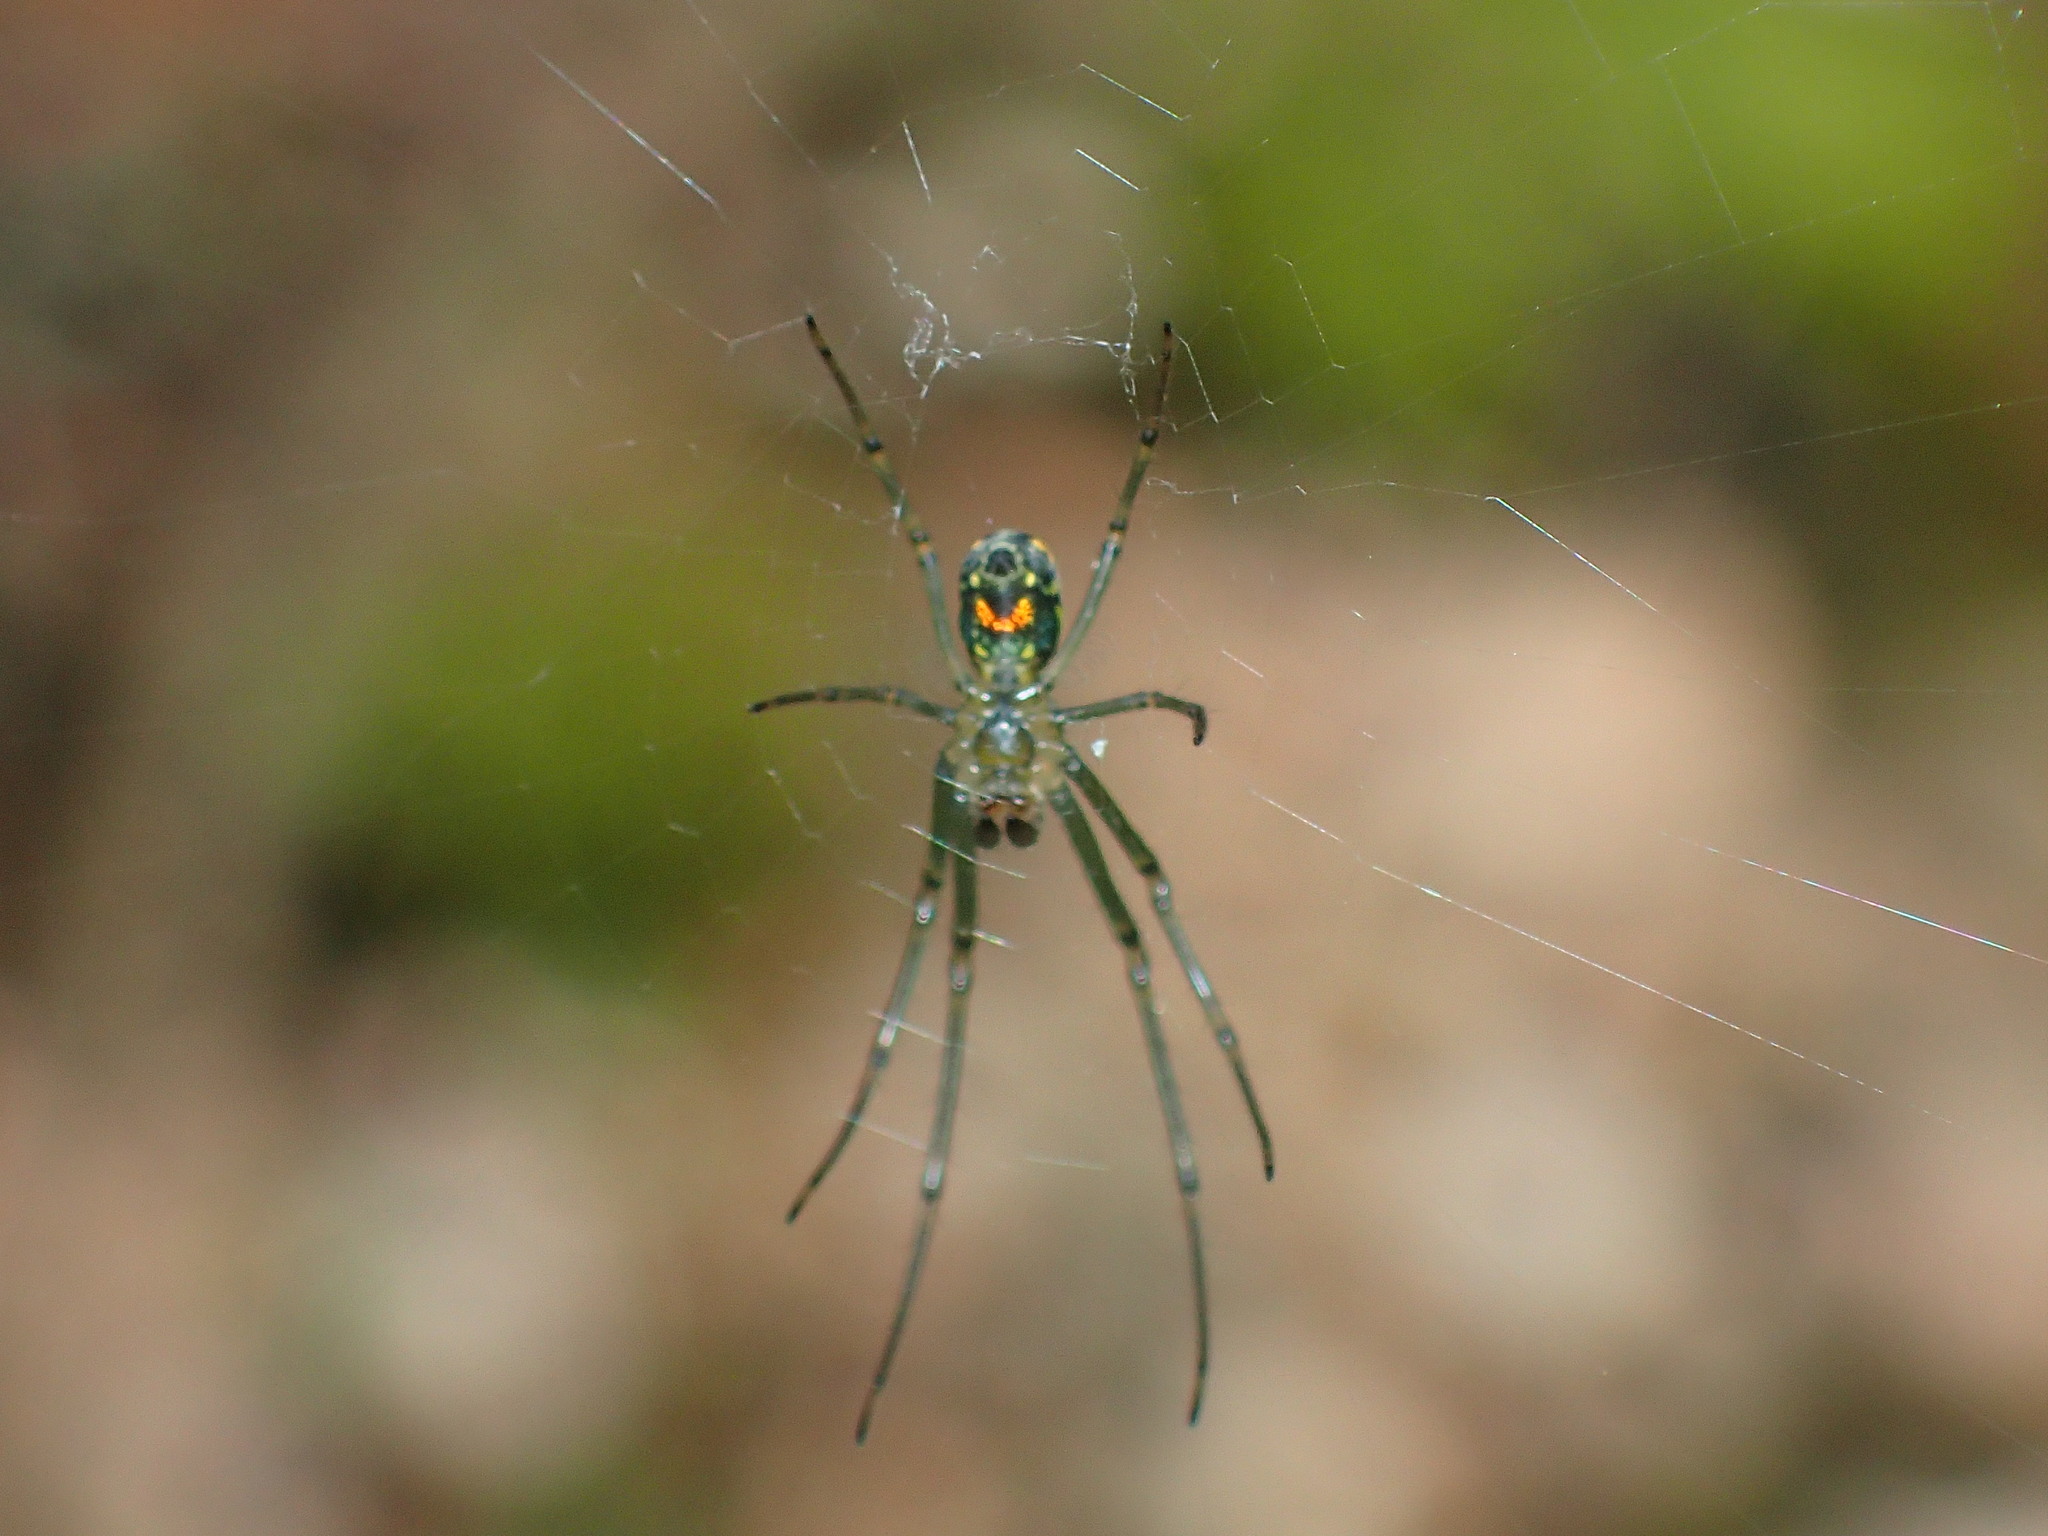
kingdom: Animalia
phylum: Arthropoda
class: Arachnida
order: Araneae
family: Tetragnathidae
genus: Leucauge
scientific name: Leucauge venusta
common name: Longjawed orb weavers
